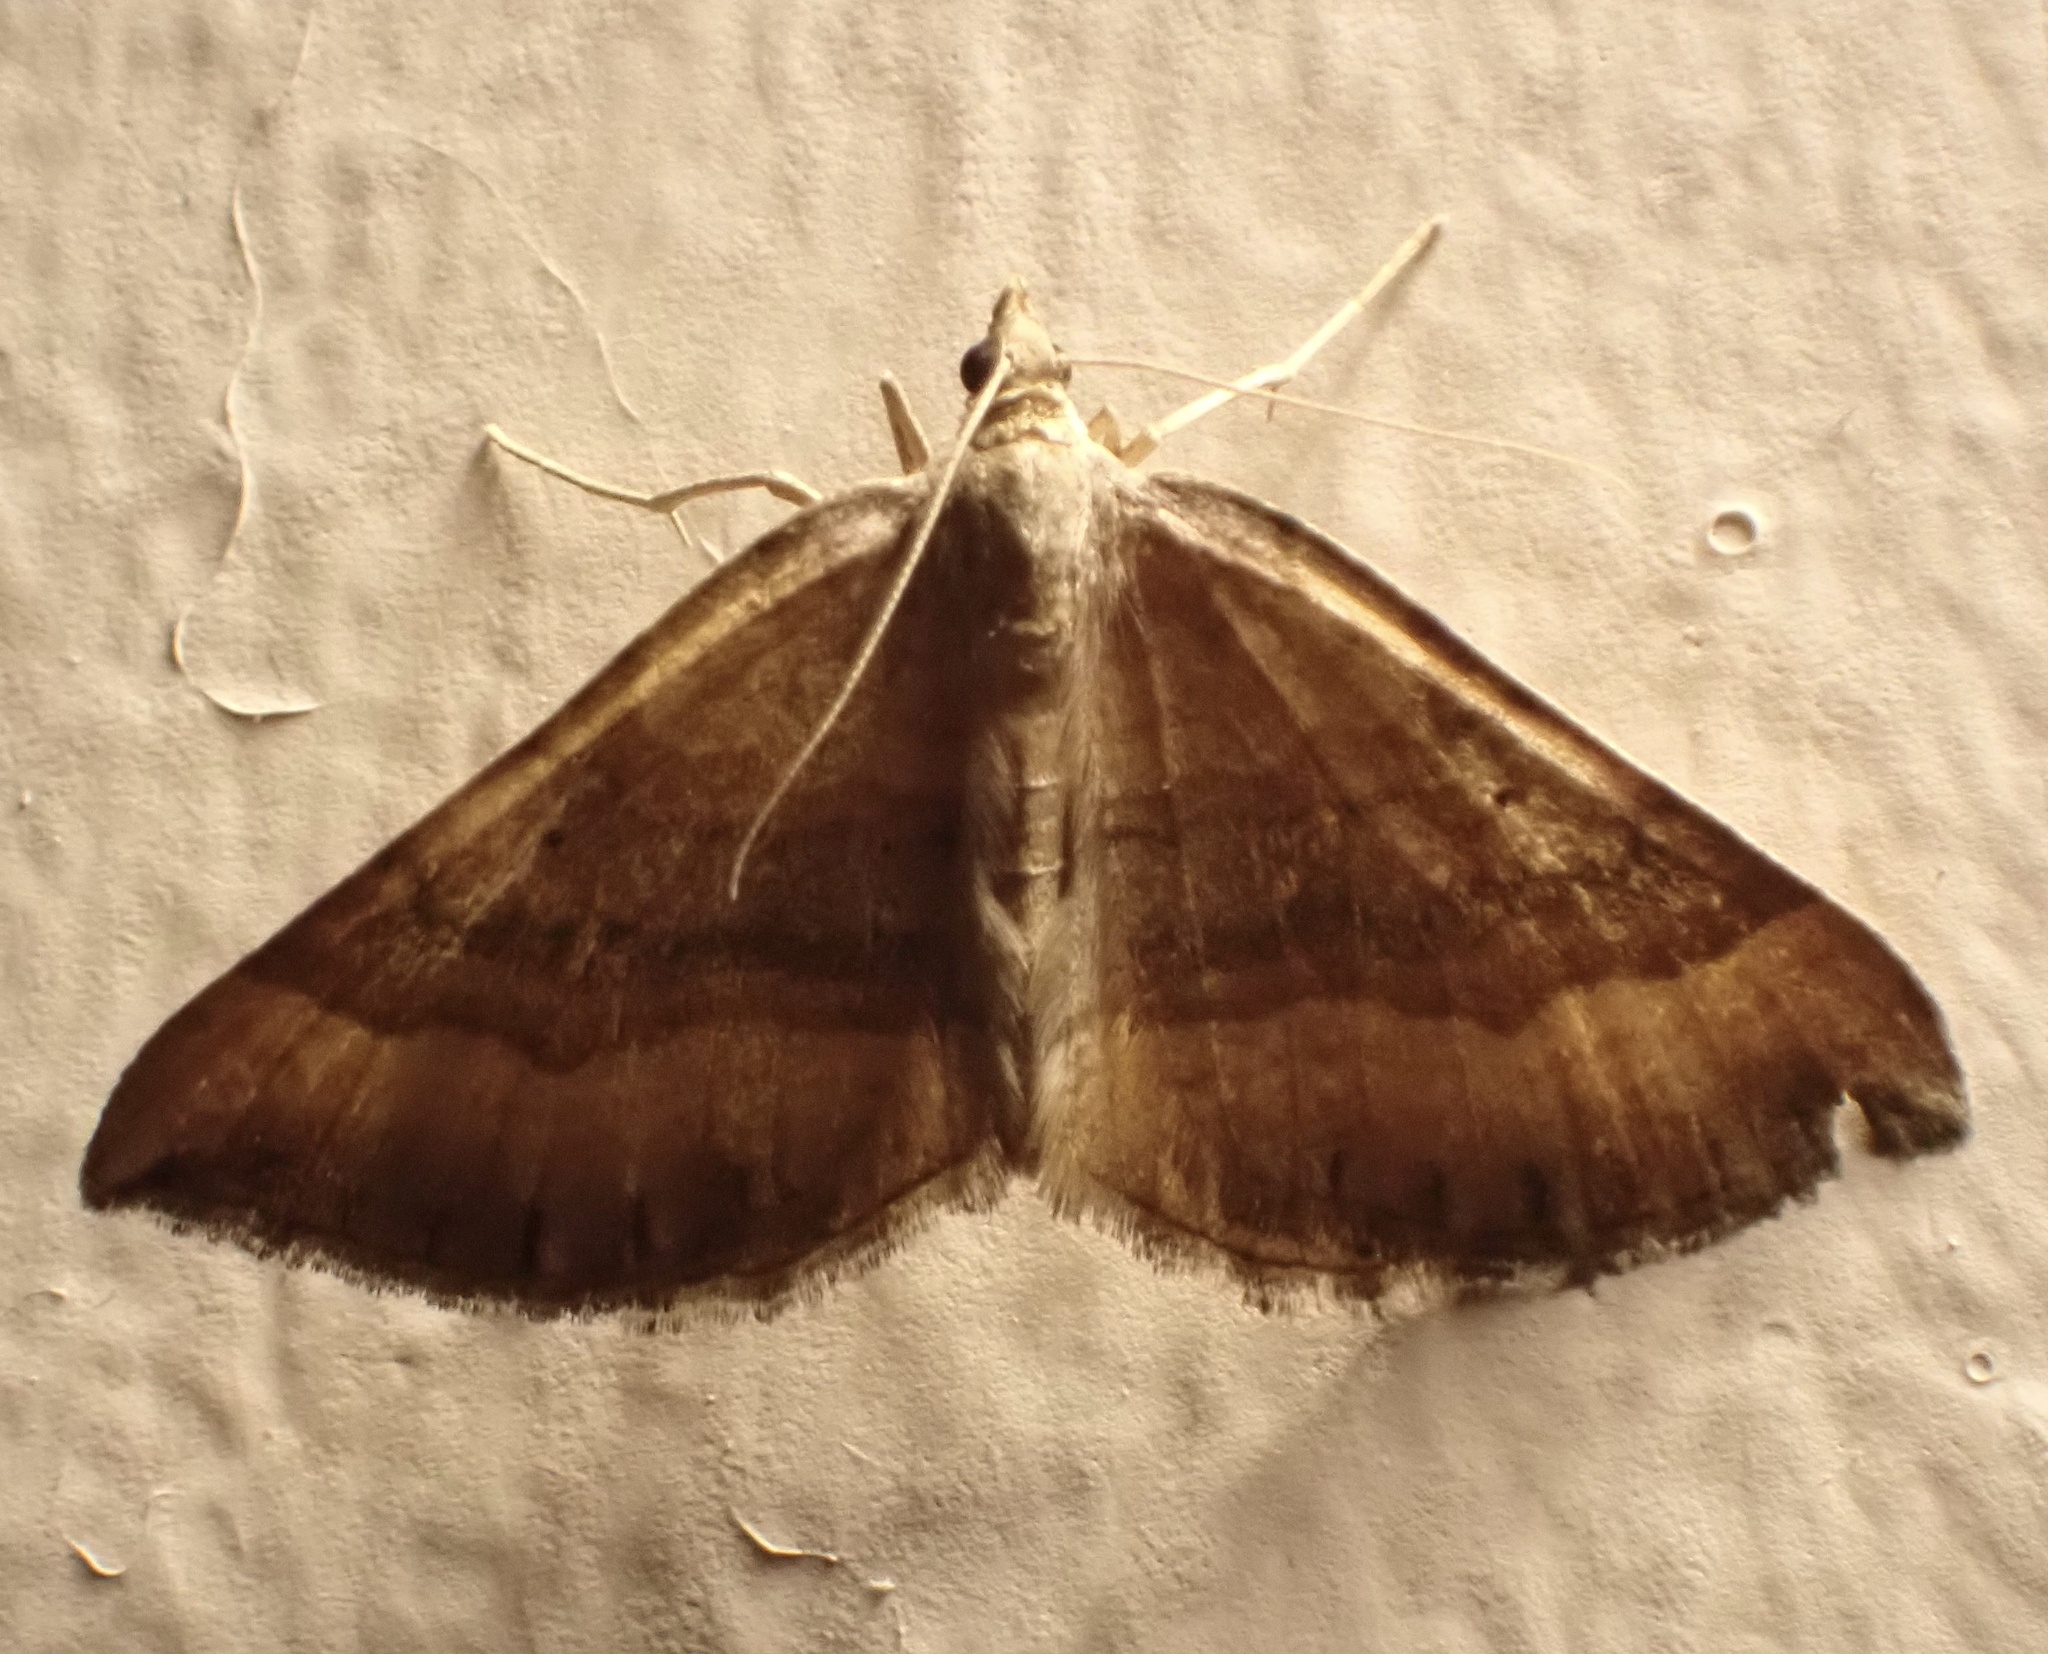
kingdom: Animalia
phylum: Arthropoda
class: Insecta
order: Lepidoptera
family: Geometridae
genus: Scotopteryx
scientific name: Scotopteryx chenopodiata
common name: Shaded broad-bar
